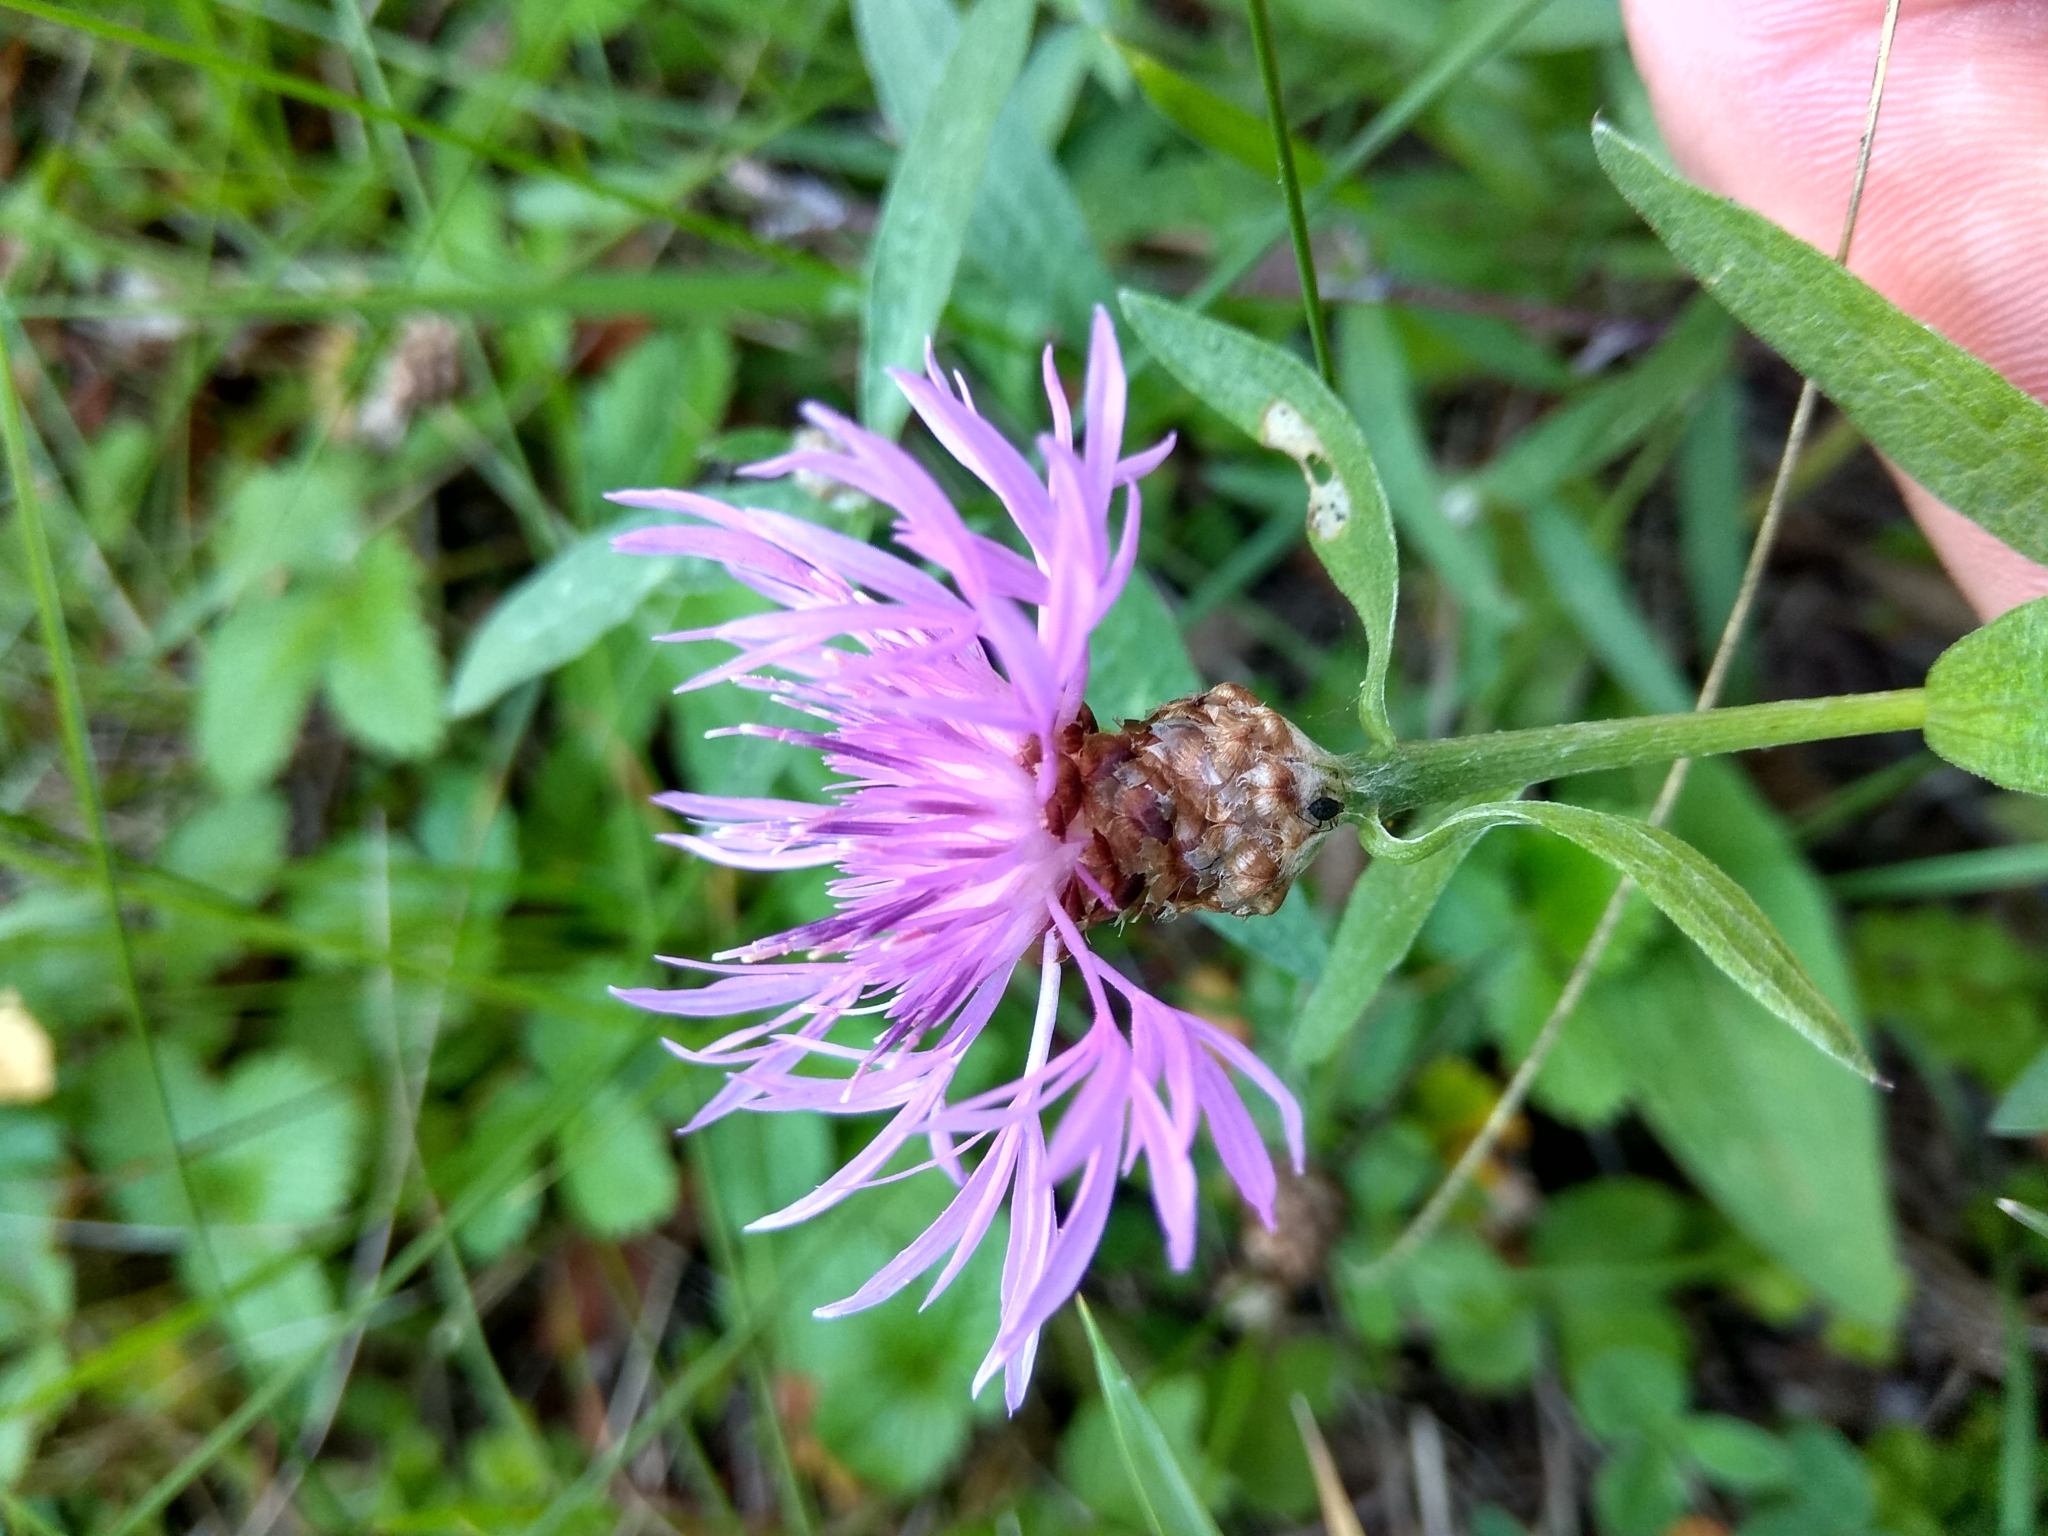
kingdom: Plantae
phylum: Tracheophyta
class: Magnoliopsida
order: Asterales
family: Asteraceae
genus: Centaurea
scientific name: Centaurea jacea
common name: Brown knapweed
